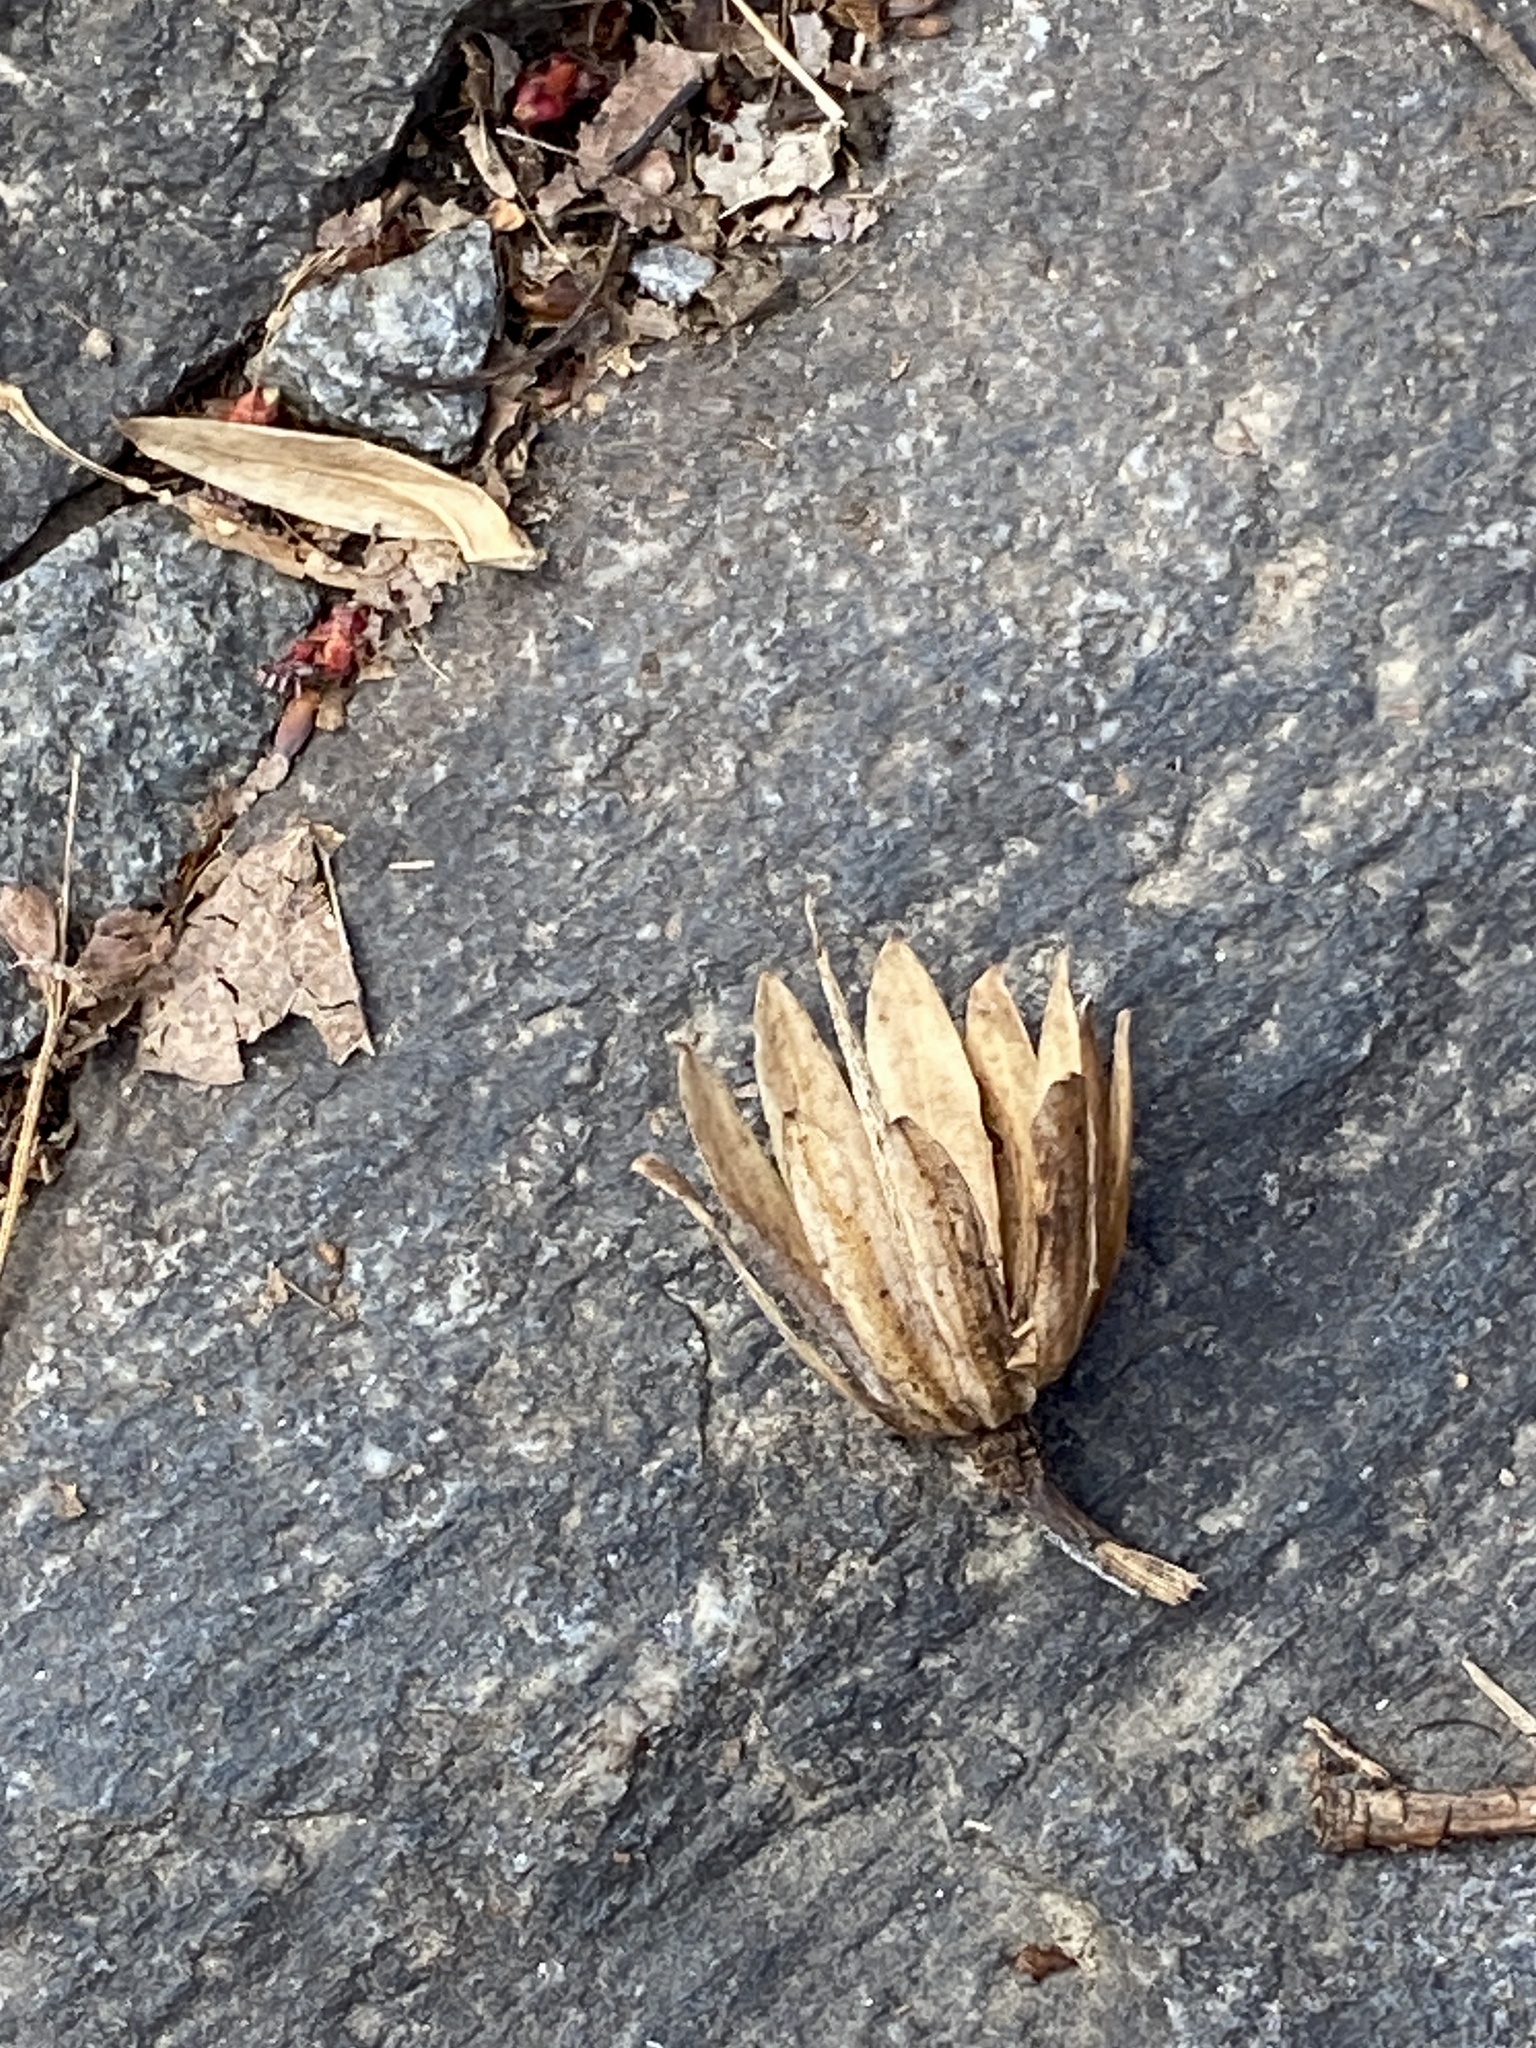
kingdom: Plantae
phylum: Tracheophyta
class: Magnoliopsida
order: Magnoliales
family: Magnoliaceae
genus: Liriodendron
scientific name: Liriodendron tulipifera
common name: Tulip tree
